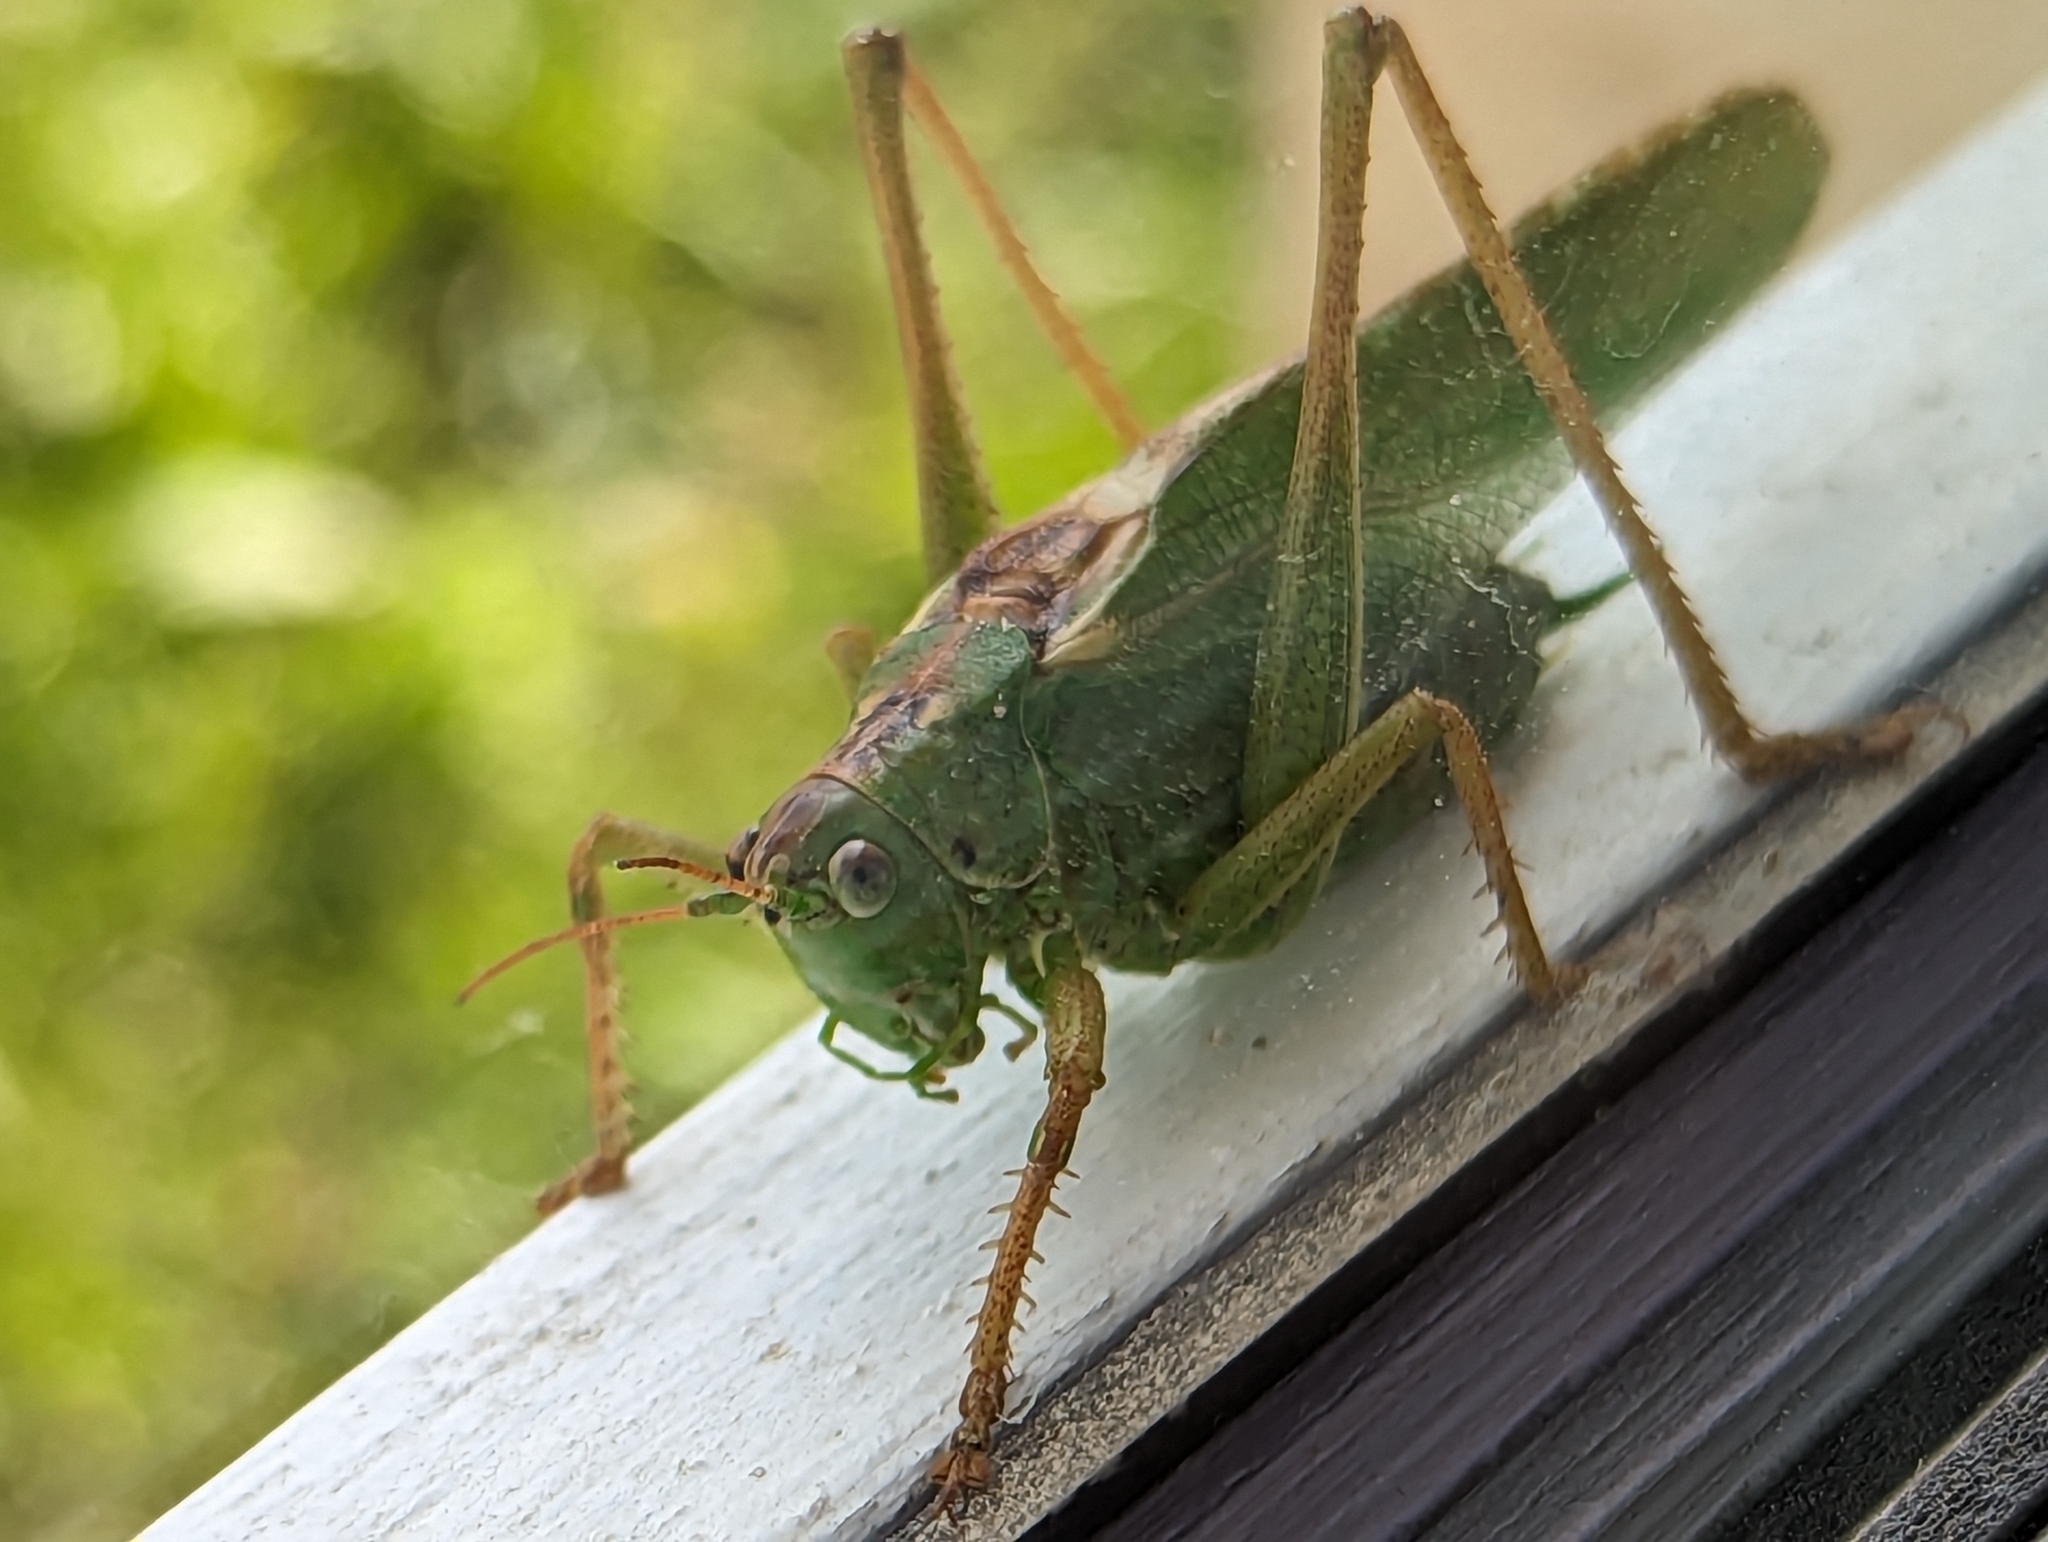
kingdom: Animalia
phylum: Arthropoda
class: Insecta
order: Orthoptera
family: Tettigoniidae
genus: Tettigonia
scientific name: Tettigonia viridissima
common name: Great green bush-cricket
